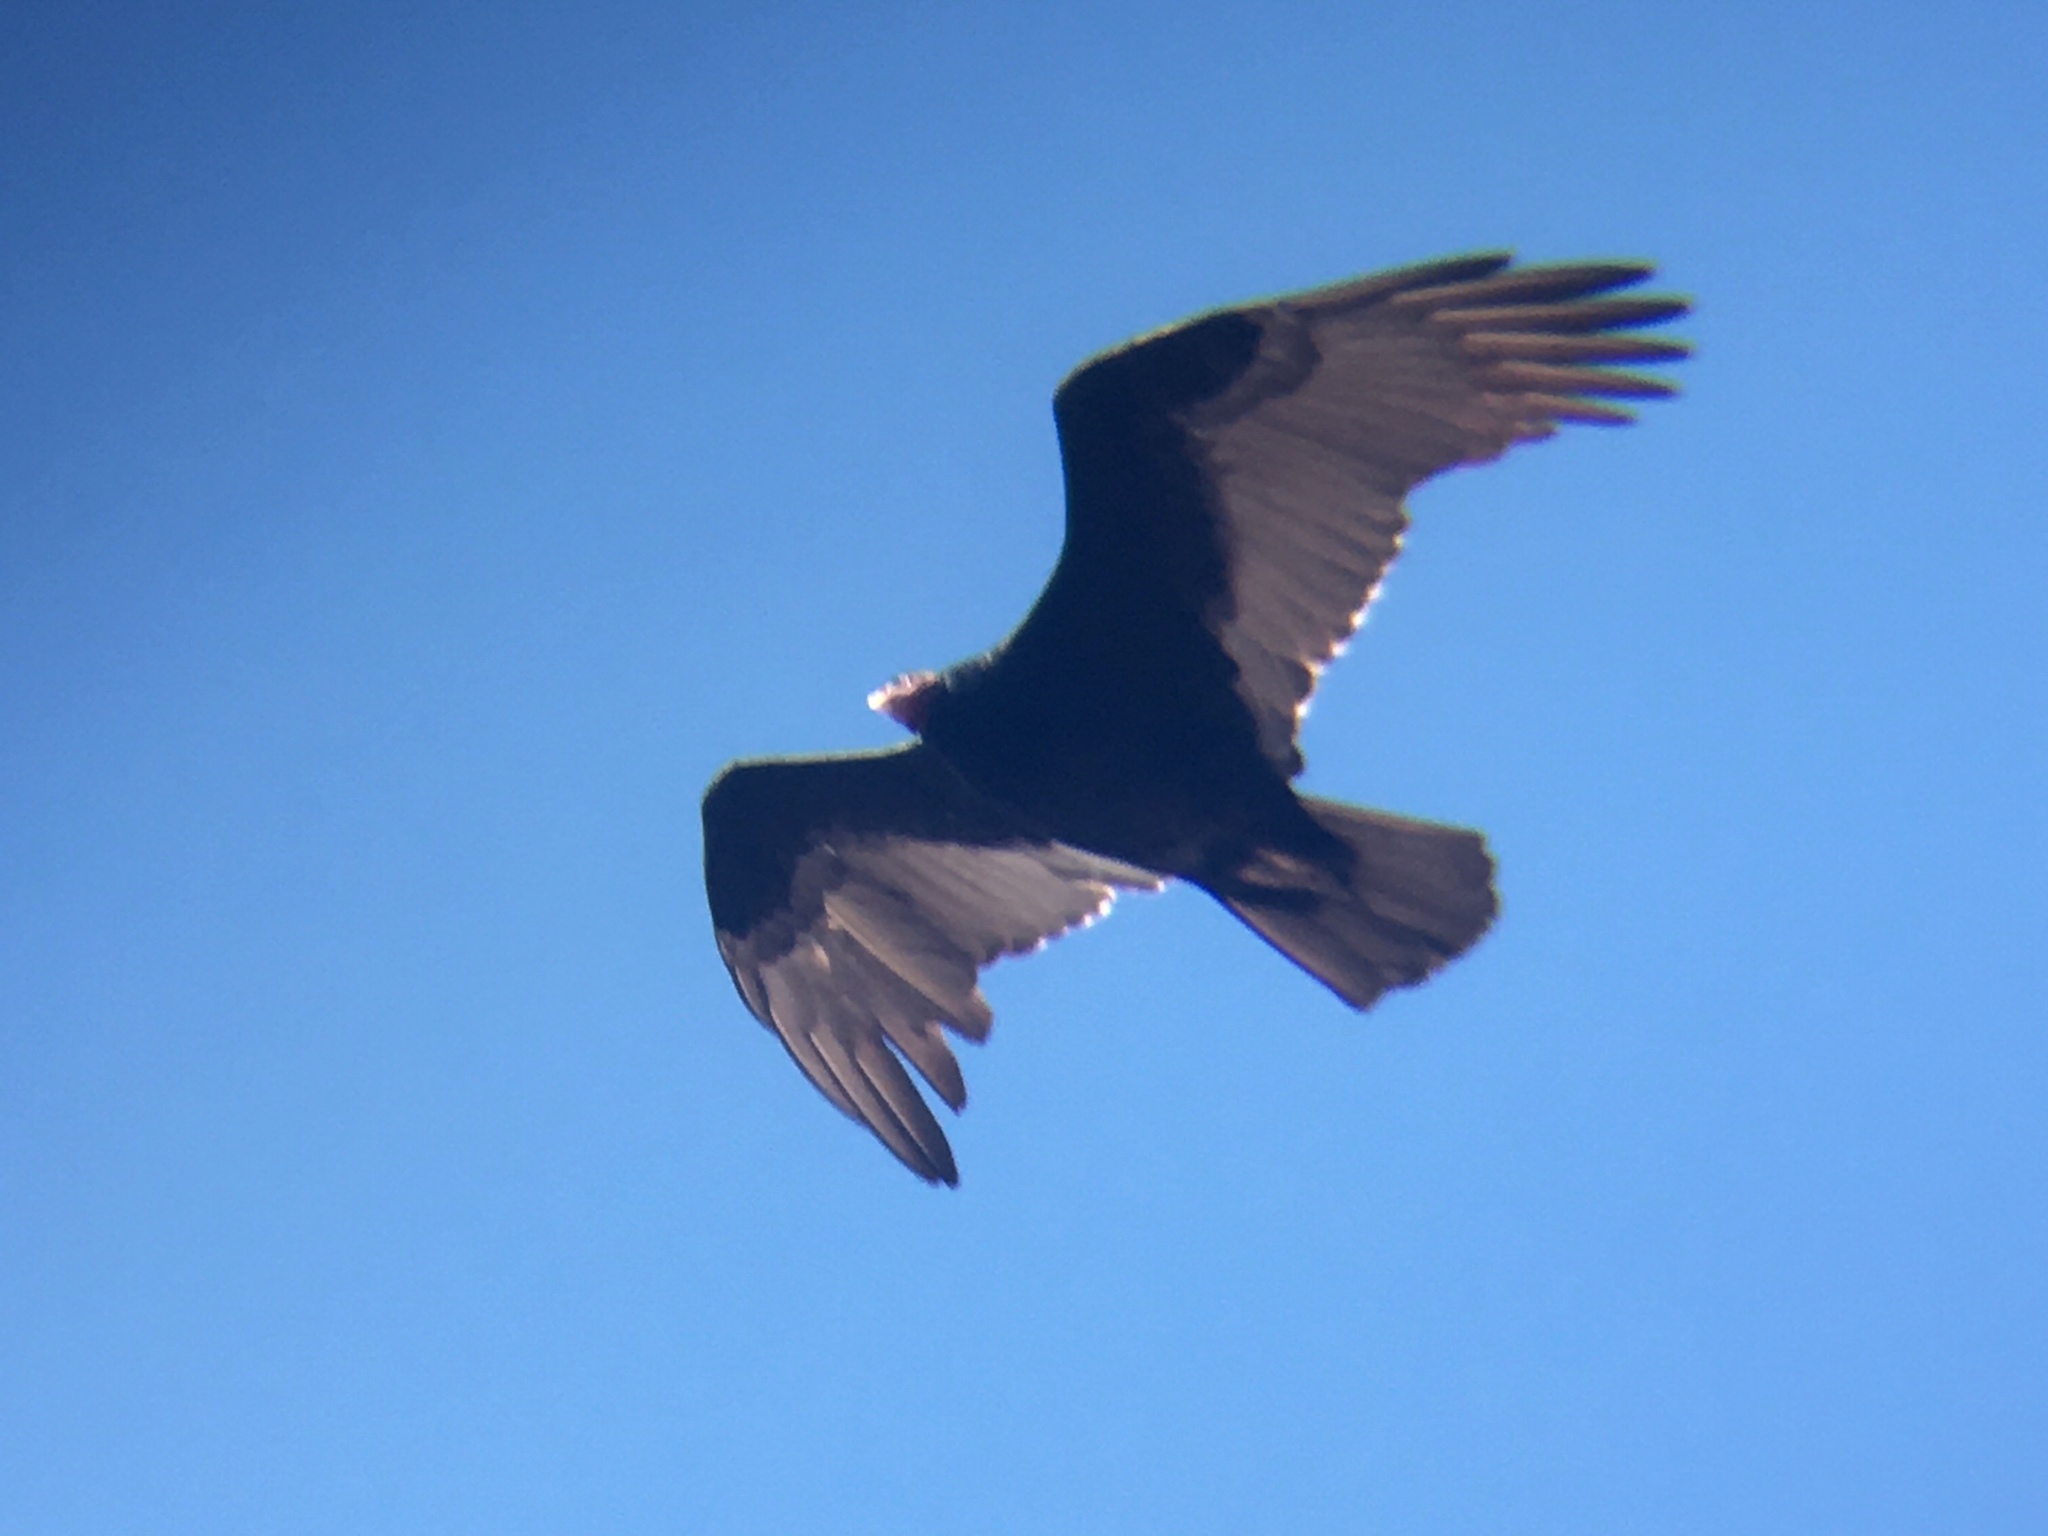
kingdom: Animalia
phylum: Chordata
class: Aves
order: Accipitriformes
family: Cathartidae
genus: Cathartes
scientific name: Cathartes aura
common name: Turkey vulture
